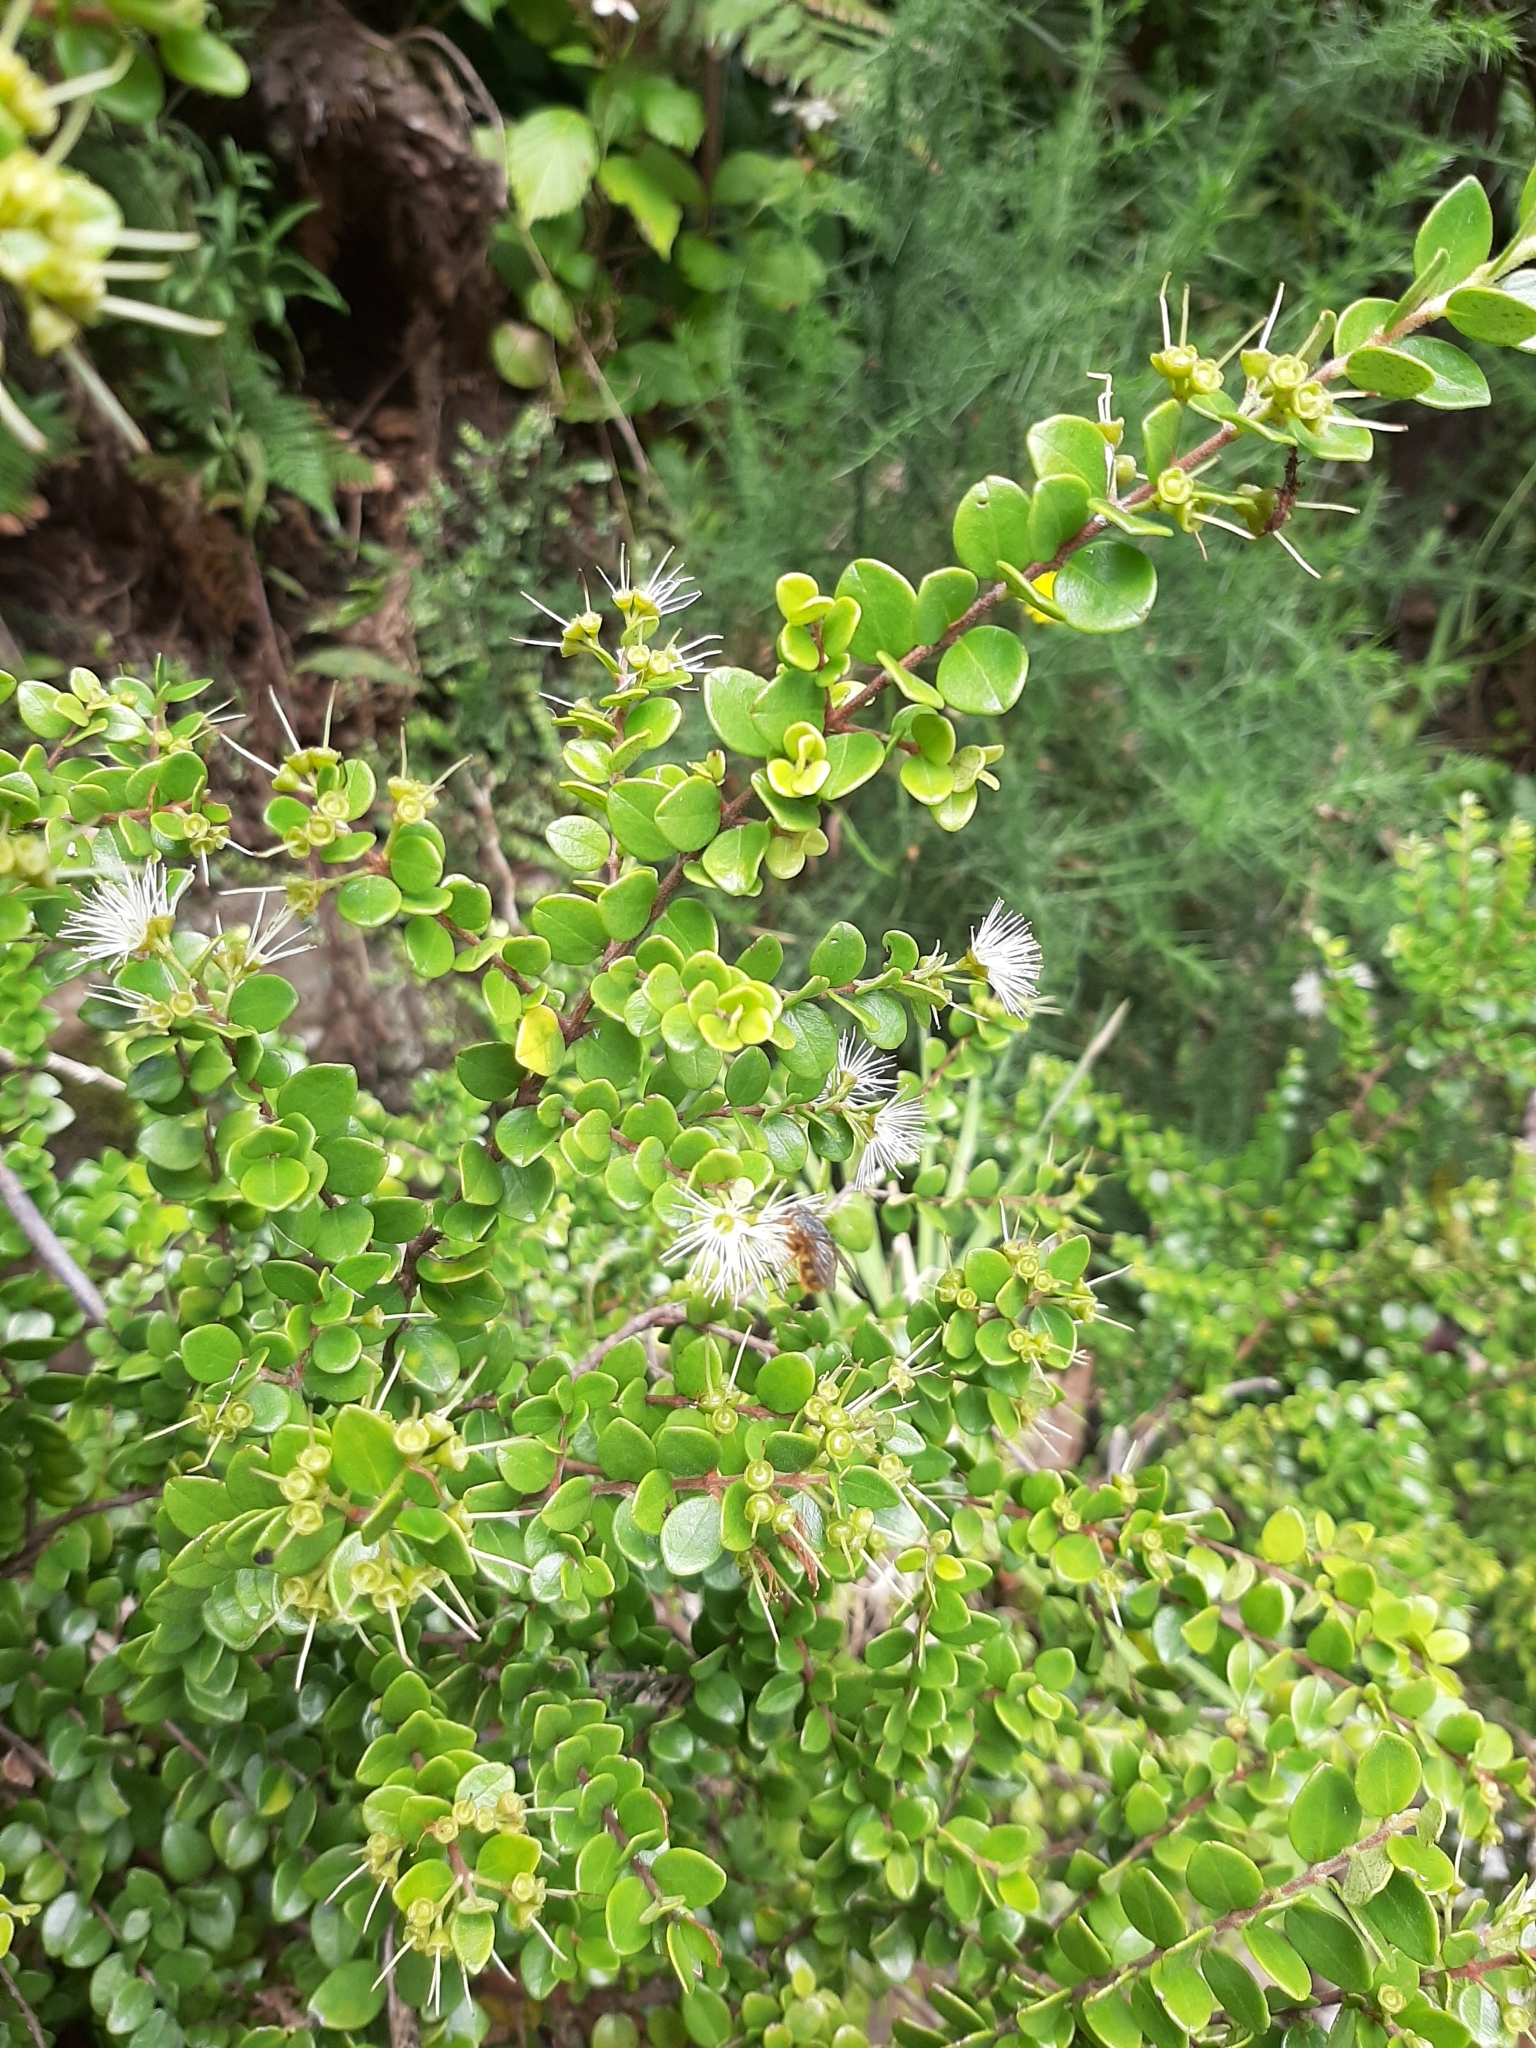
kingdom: Plantae
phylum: Tracheophyta
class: Magnoliopsida
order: Myrtales
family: Myrtaceae
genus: Metrosideros
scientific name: Metrosideros perforata
